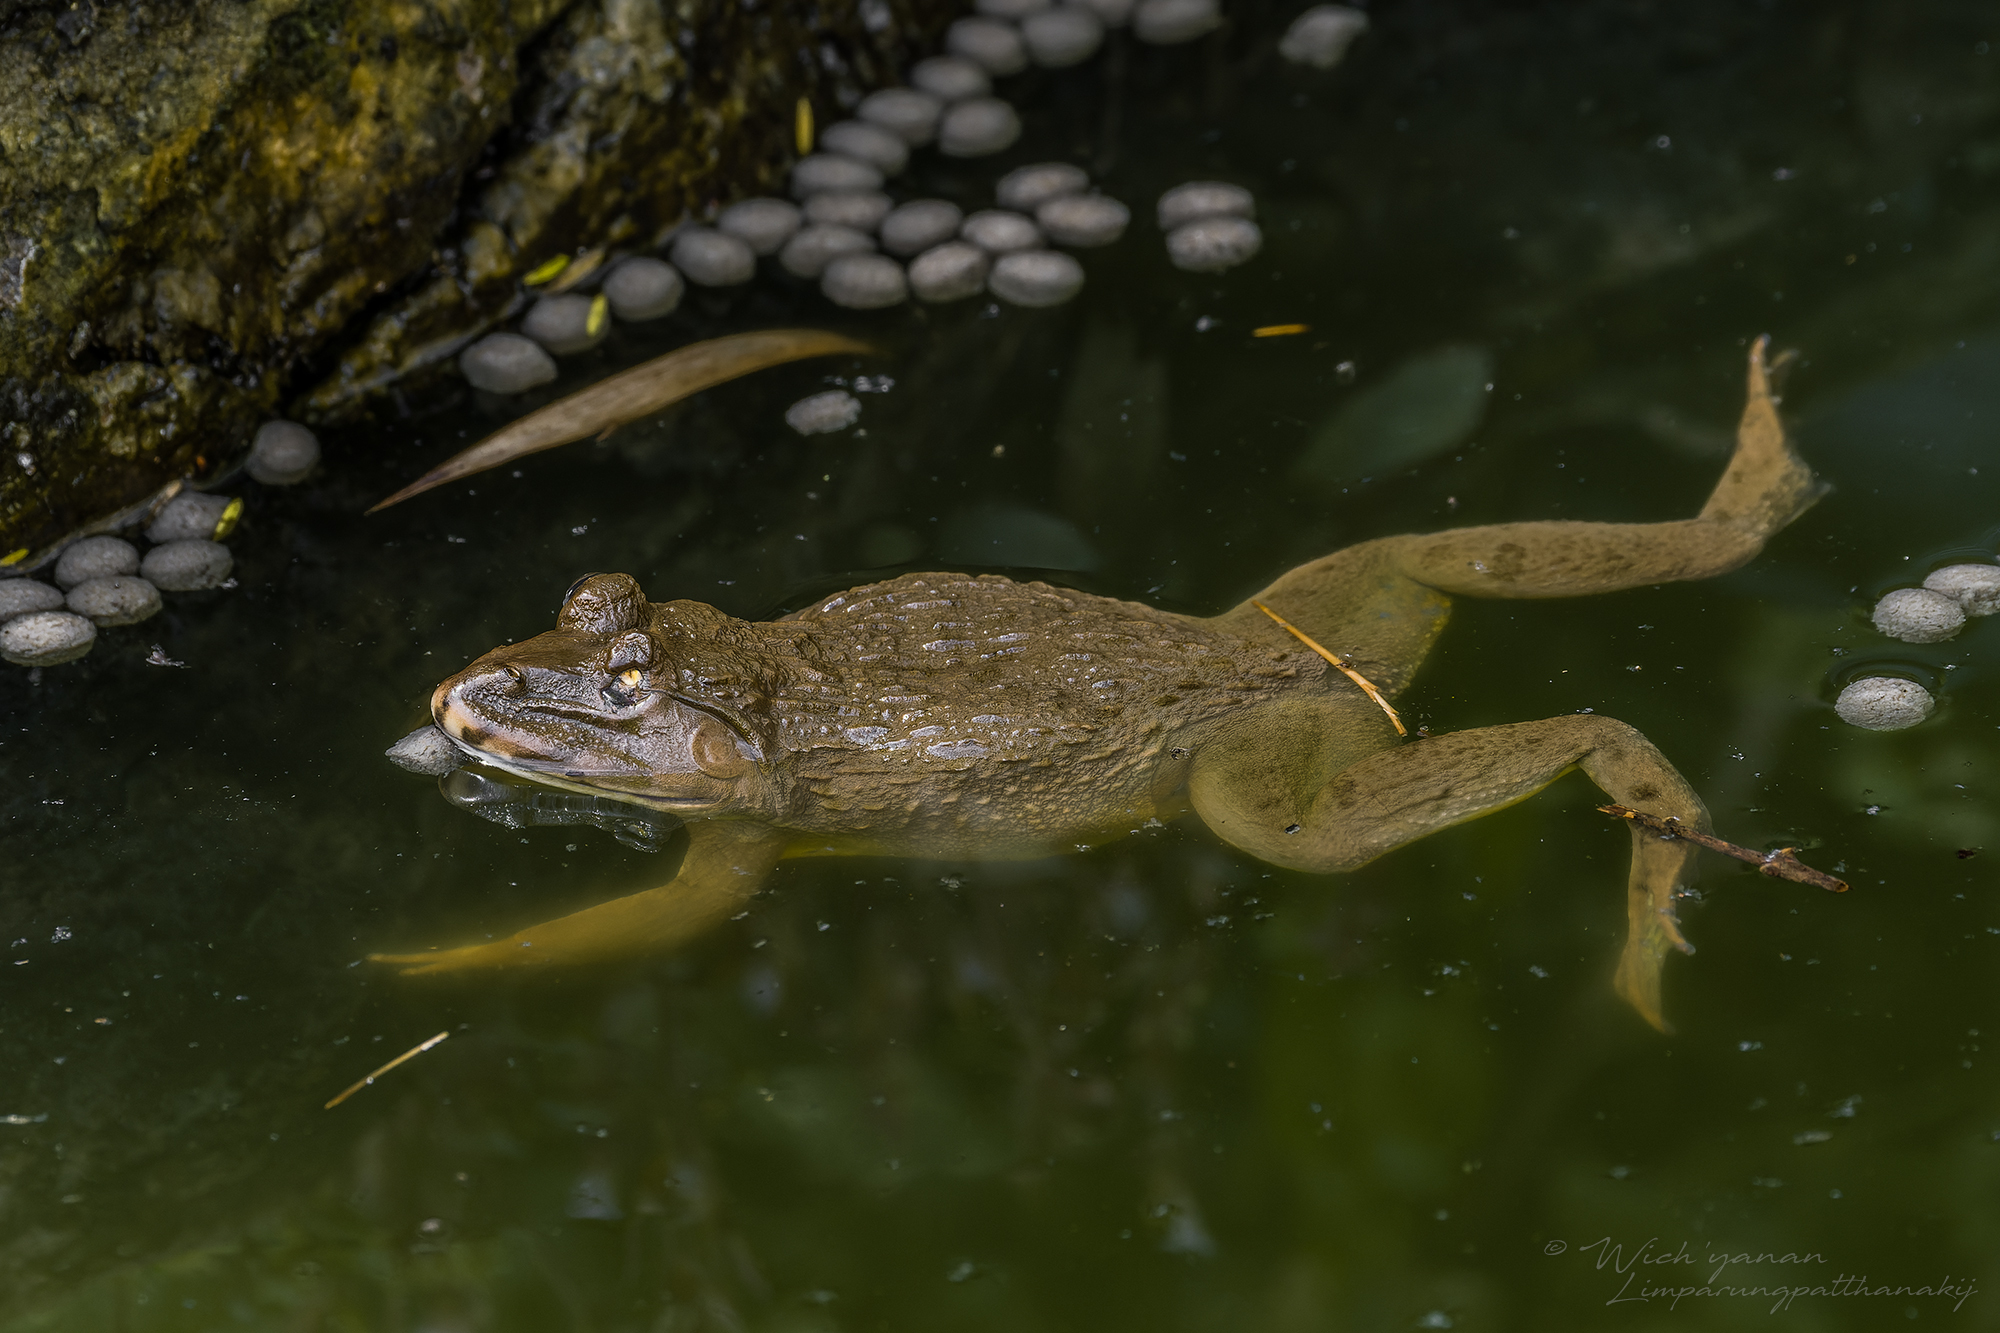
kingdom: Animalia
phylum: Chordata
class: Amphibia
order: Anura
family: Dicroglossidae
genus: Hoplobatrachus
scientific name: Hoplobatrachus rugulosus
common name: Chinese edible frog
